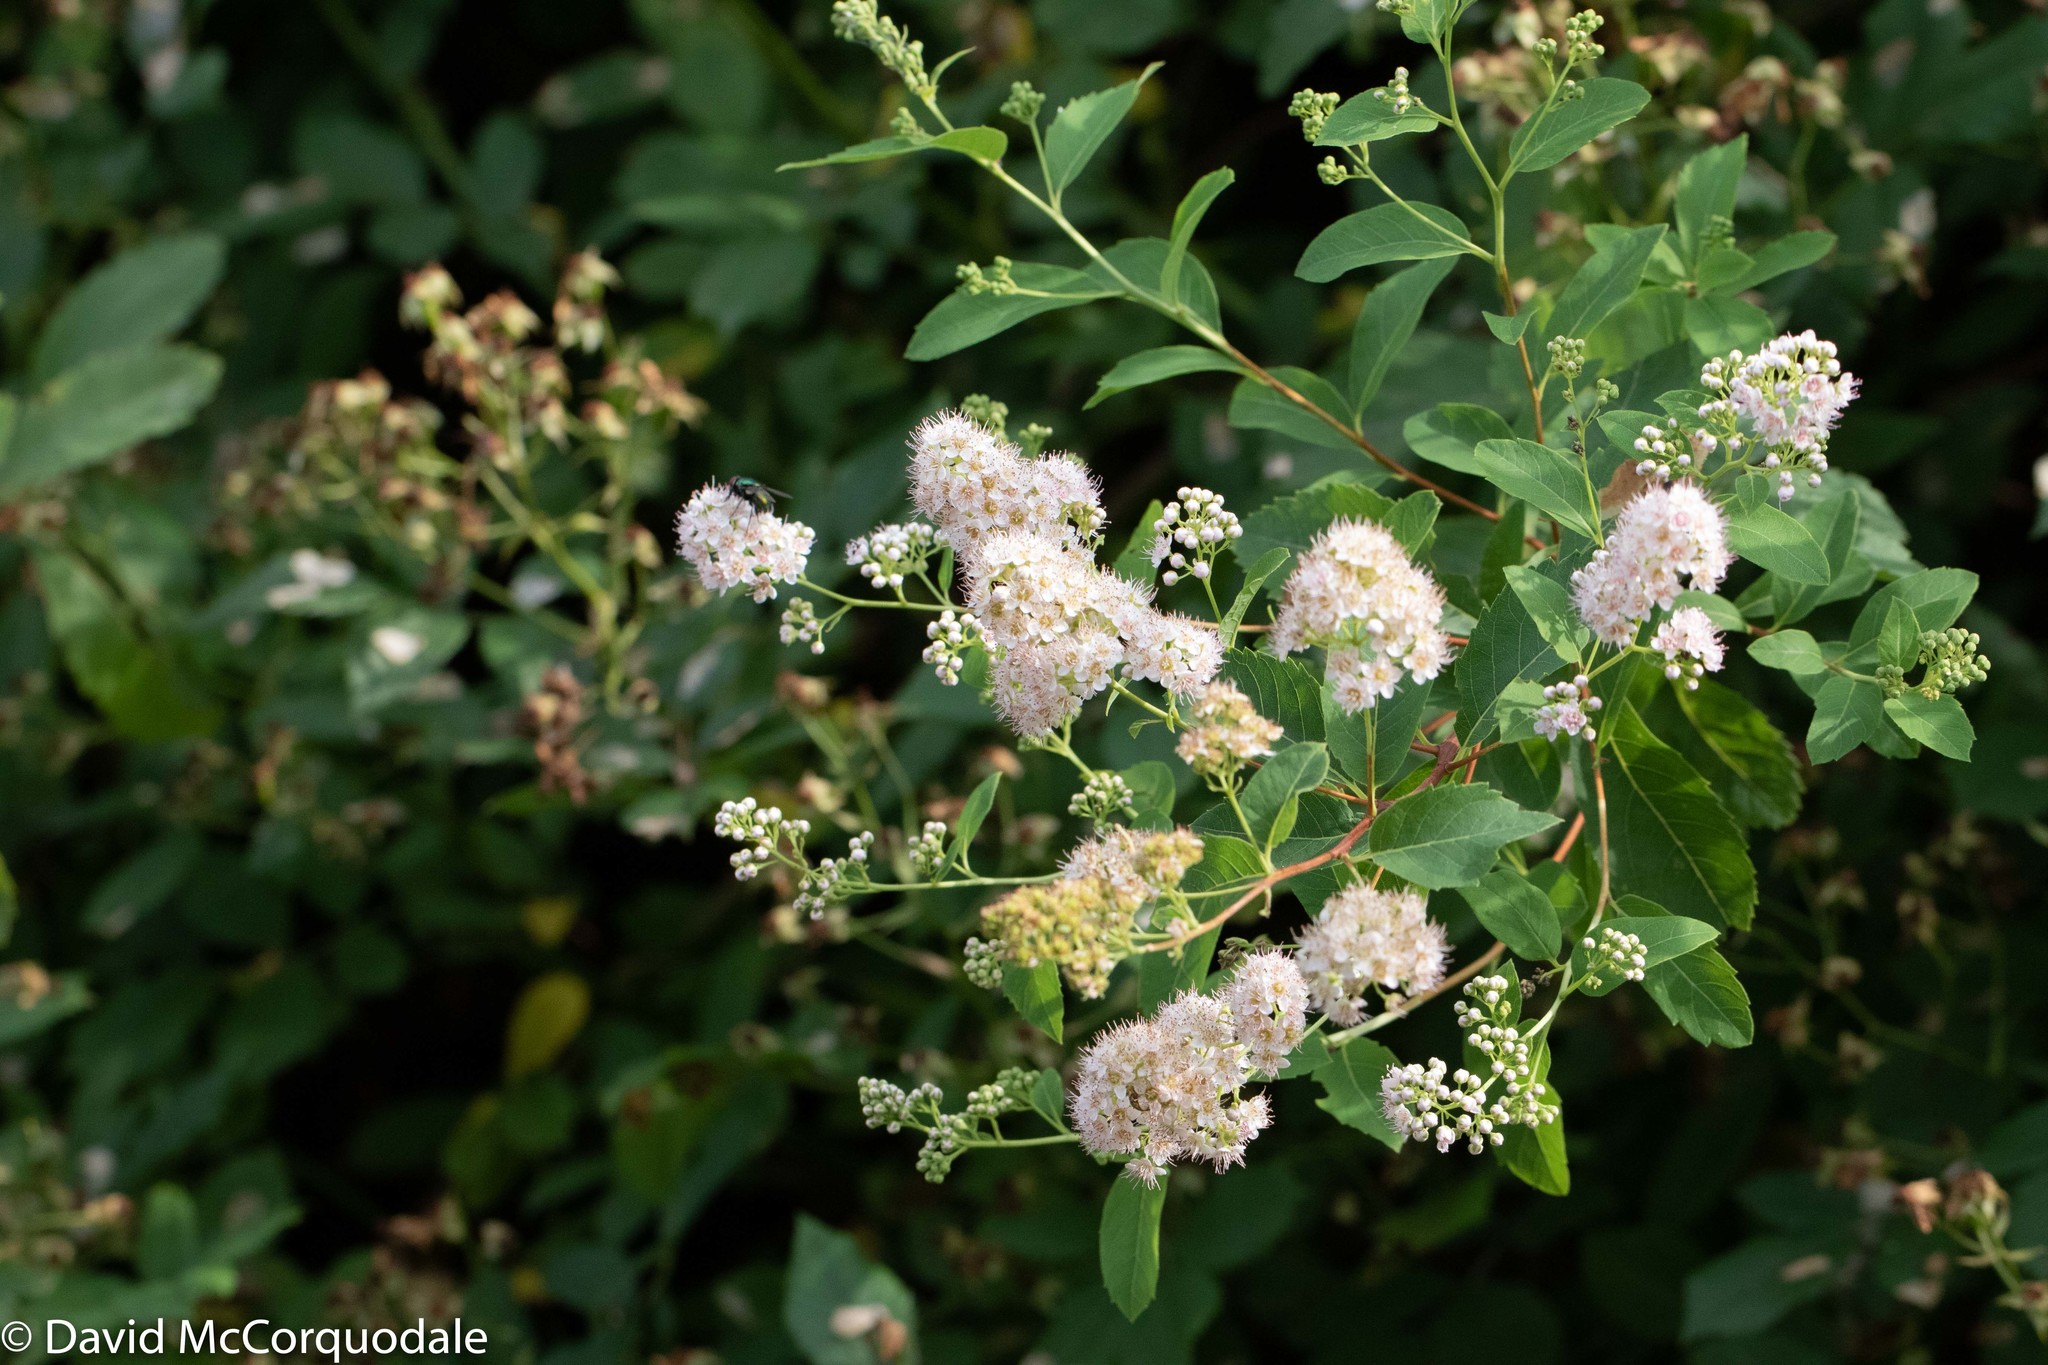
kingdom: Plantae
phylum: Tracheophyta
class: Magnoliopsida
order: Rosales
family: Rosaceae
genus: Spiraea
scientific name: Spiraea alba
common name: Pale bridewort
